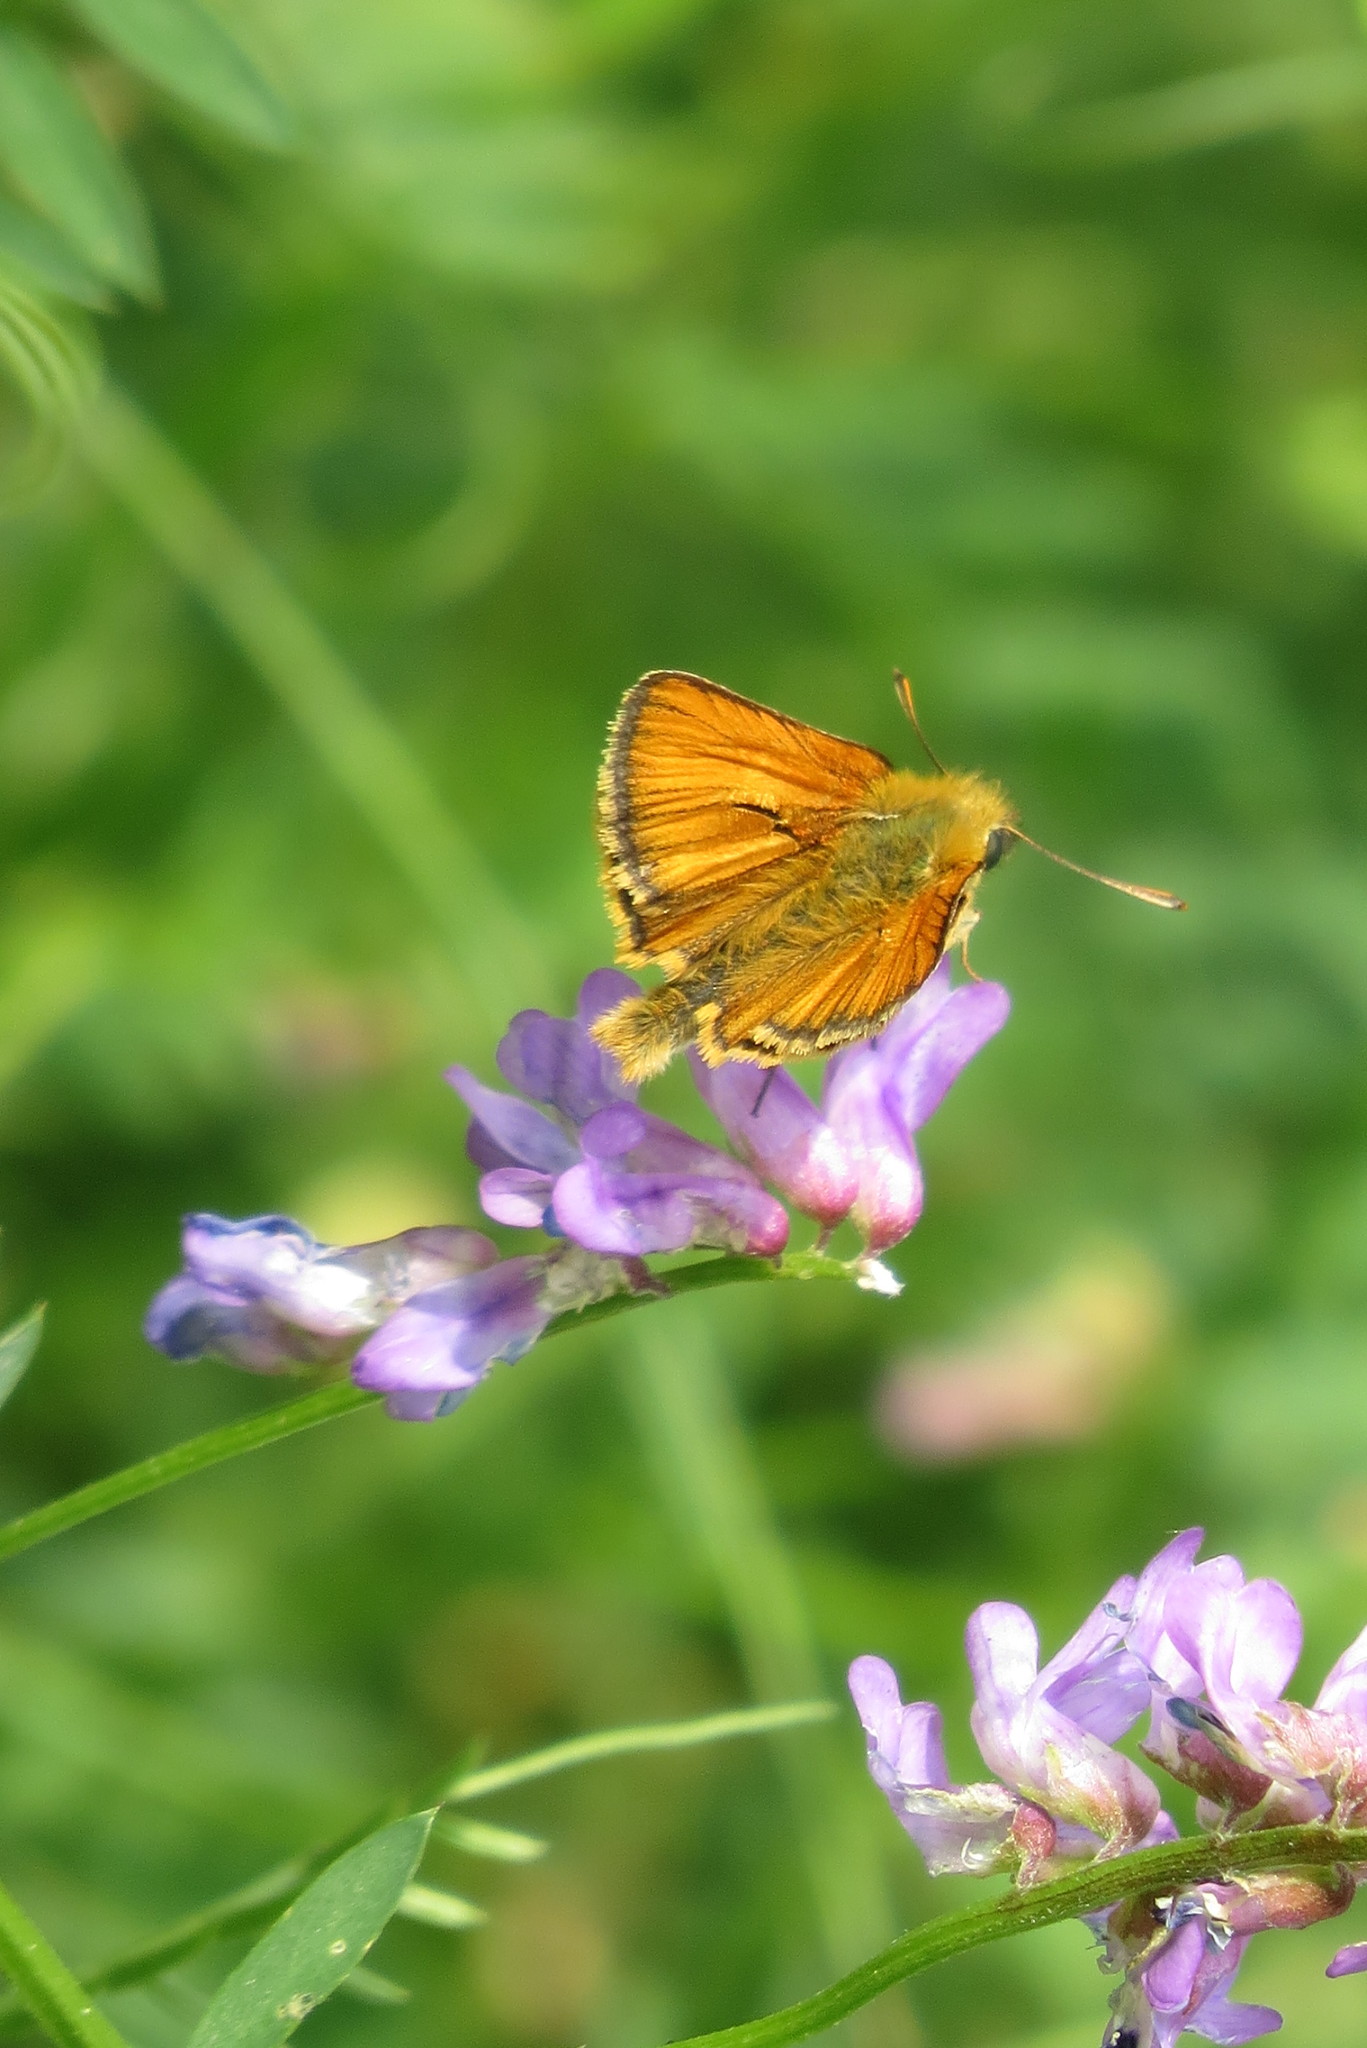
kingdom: Animalia
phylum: Arthropoda
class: Insecta
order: Lepidoptera
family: Hesperiidae
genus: Thymelicus
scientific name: Thymelicus sylvestris
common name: Small skipper
